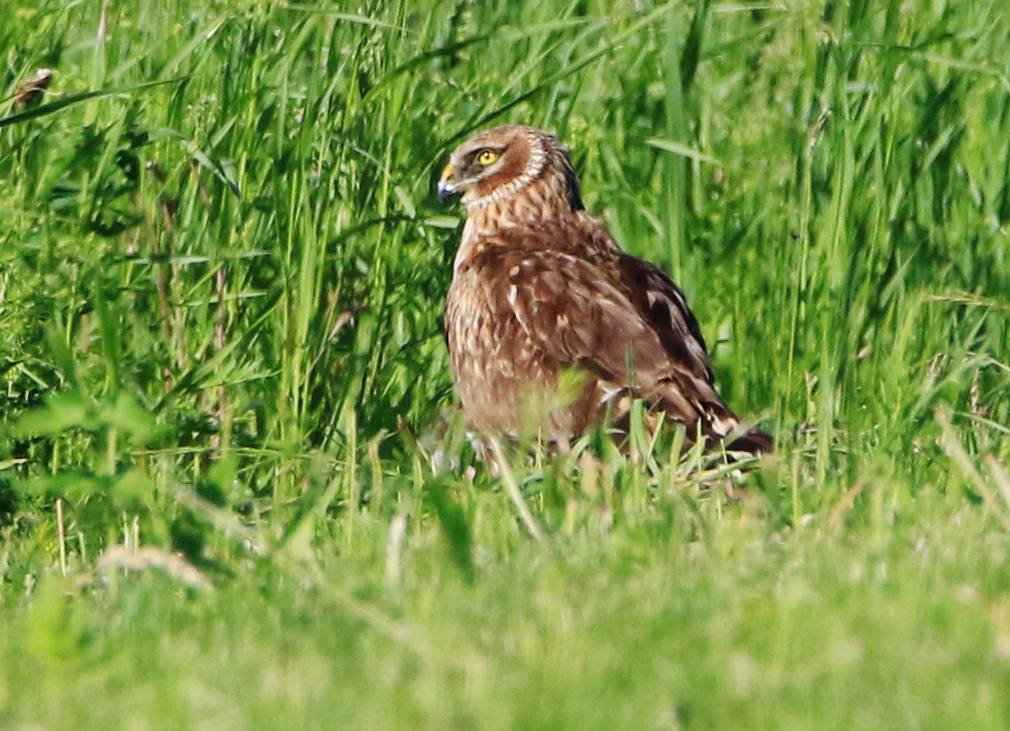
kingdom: Animalia
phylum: Chordata
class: Aves
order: Accipitriformes
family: Accipitridae
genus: Circus
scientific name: Circus cyaneus
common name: Hen harrier
